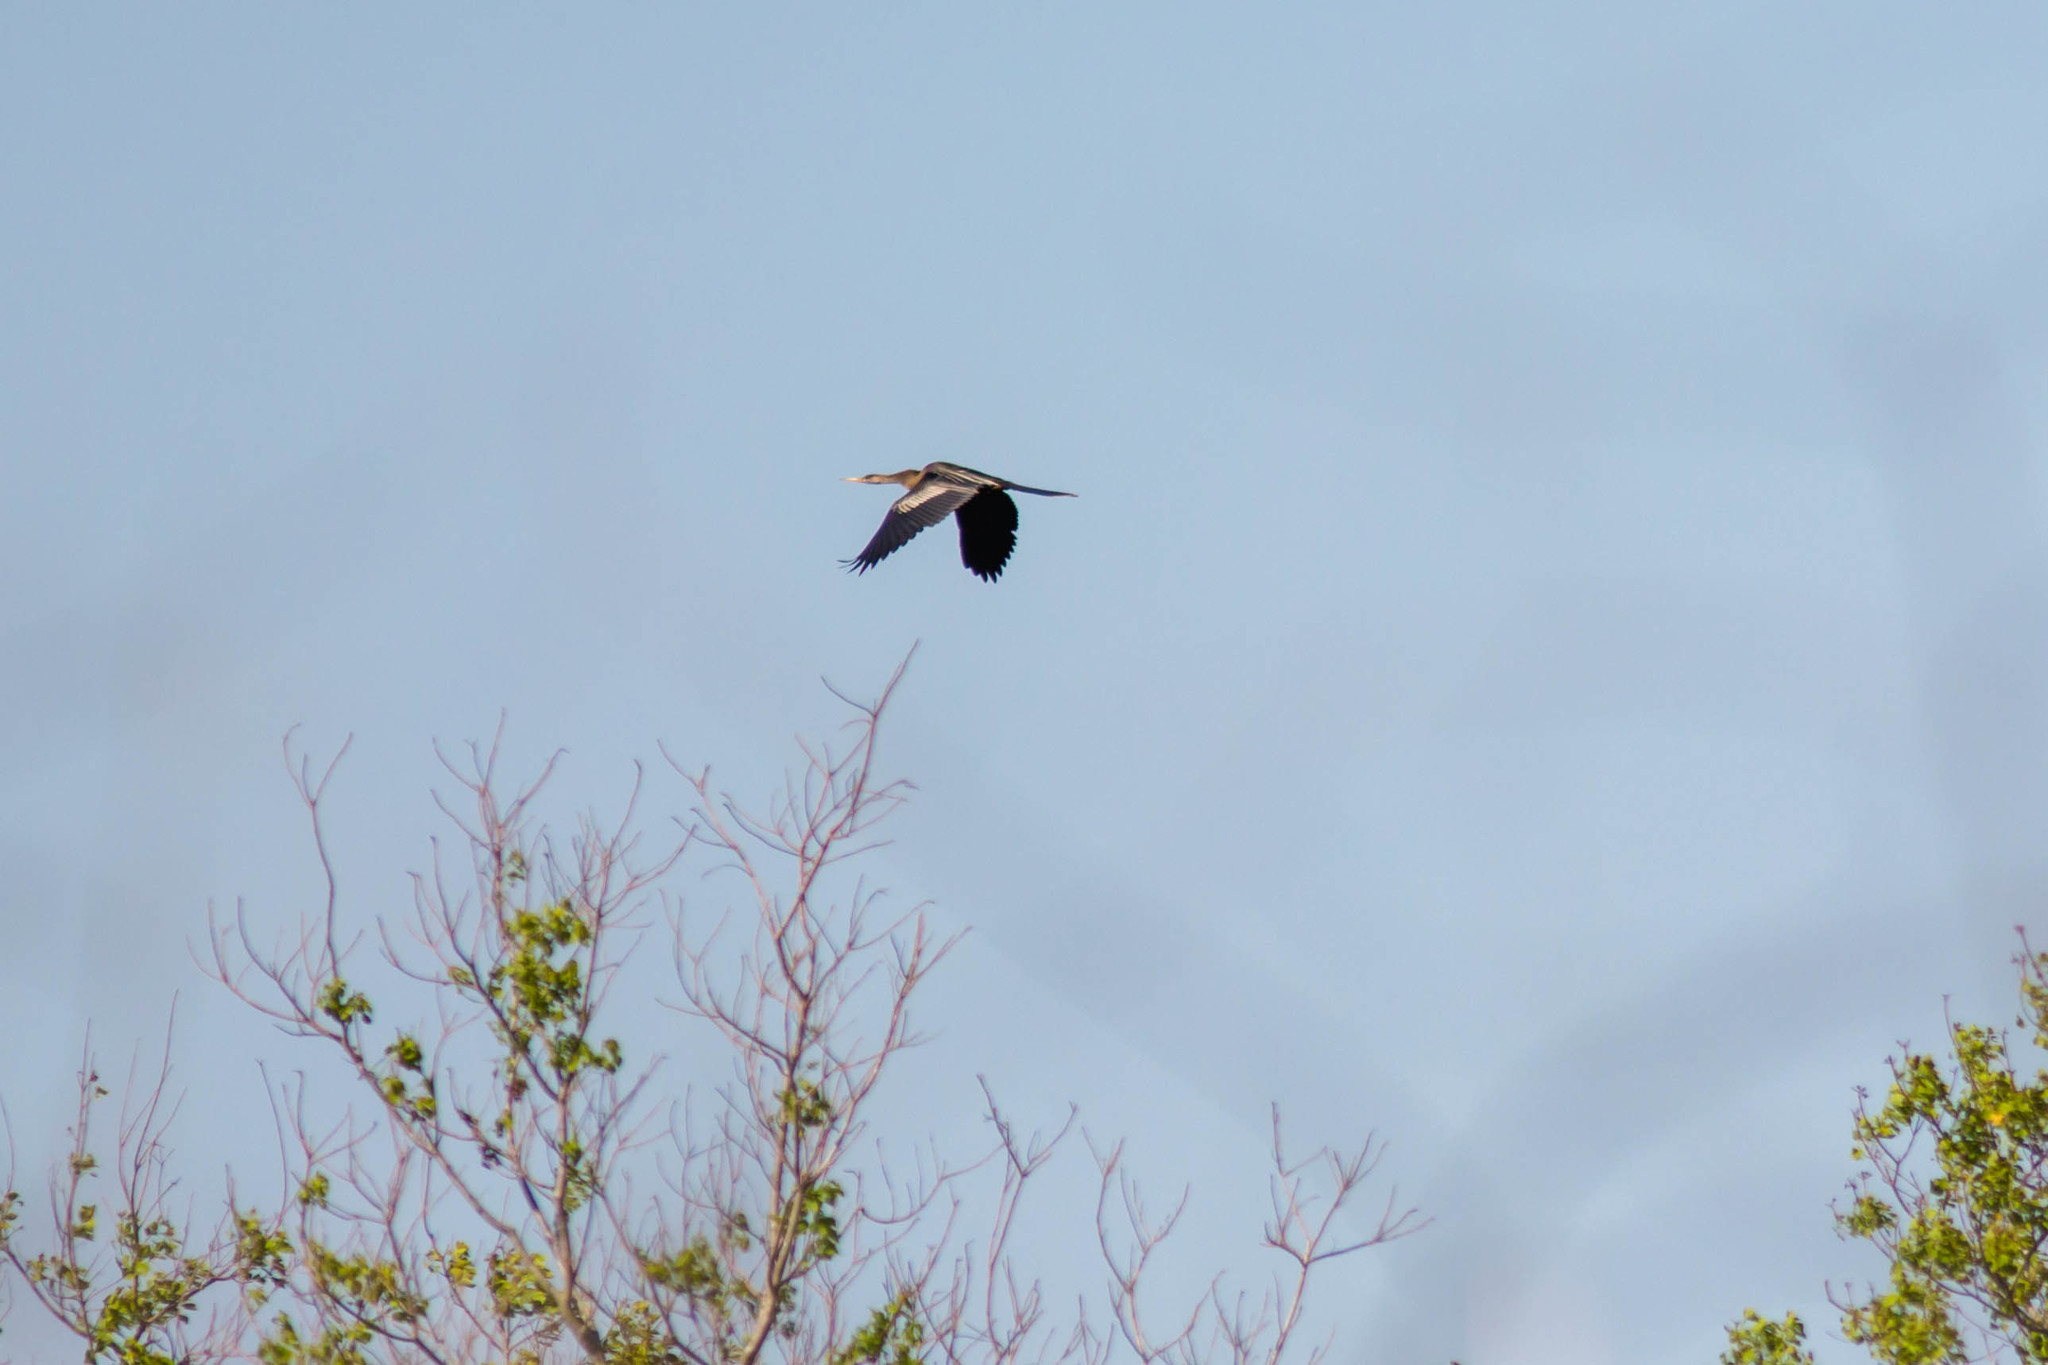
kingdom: Animalia
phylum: Chordata
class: Aves
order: Suliformes
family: Anhingidae
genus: Anhinga
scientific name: Anhinga anhinga
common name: Anhinga
